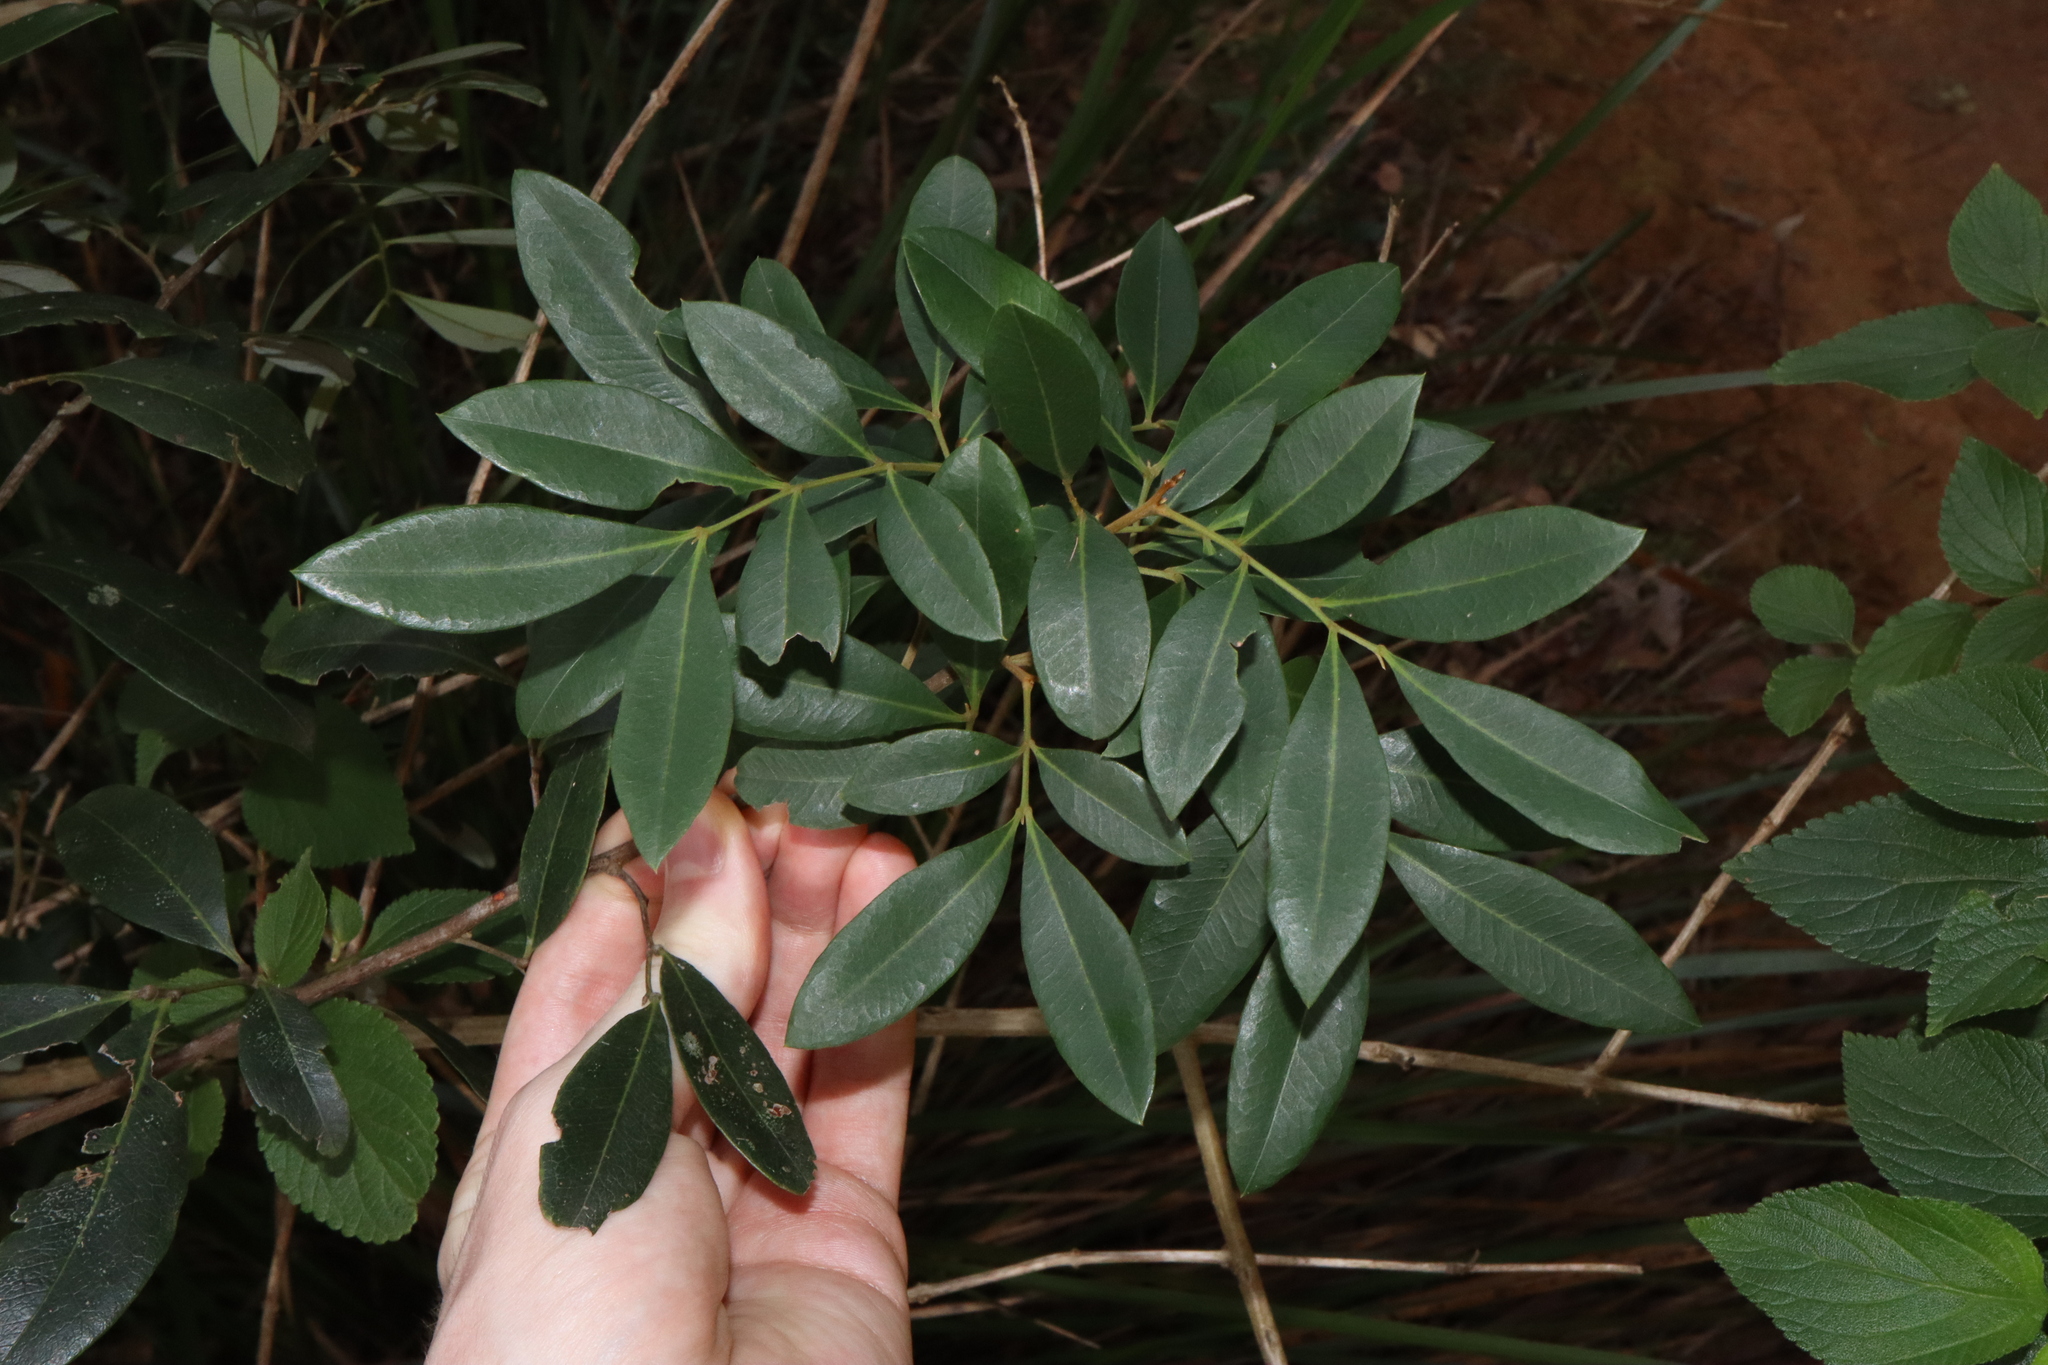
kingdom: Plantae
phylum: Tracheophyta
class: Magnoliopsida
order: Sapindales
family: Sapindaceae
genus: Guioa
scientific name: Guioa semiglauca
